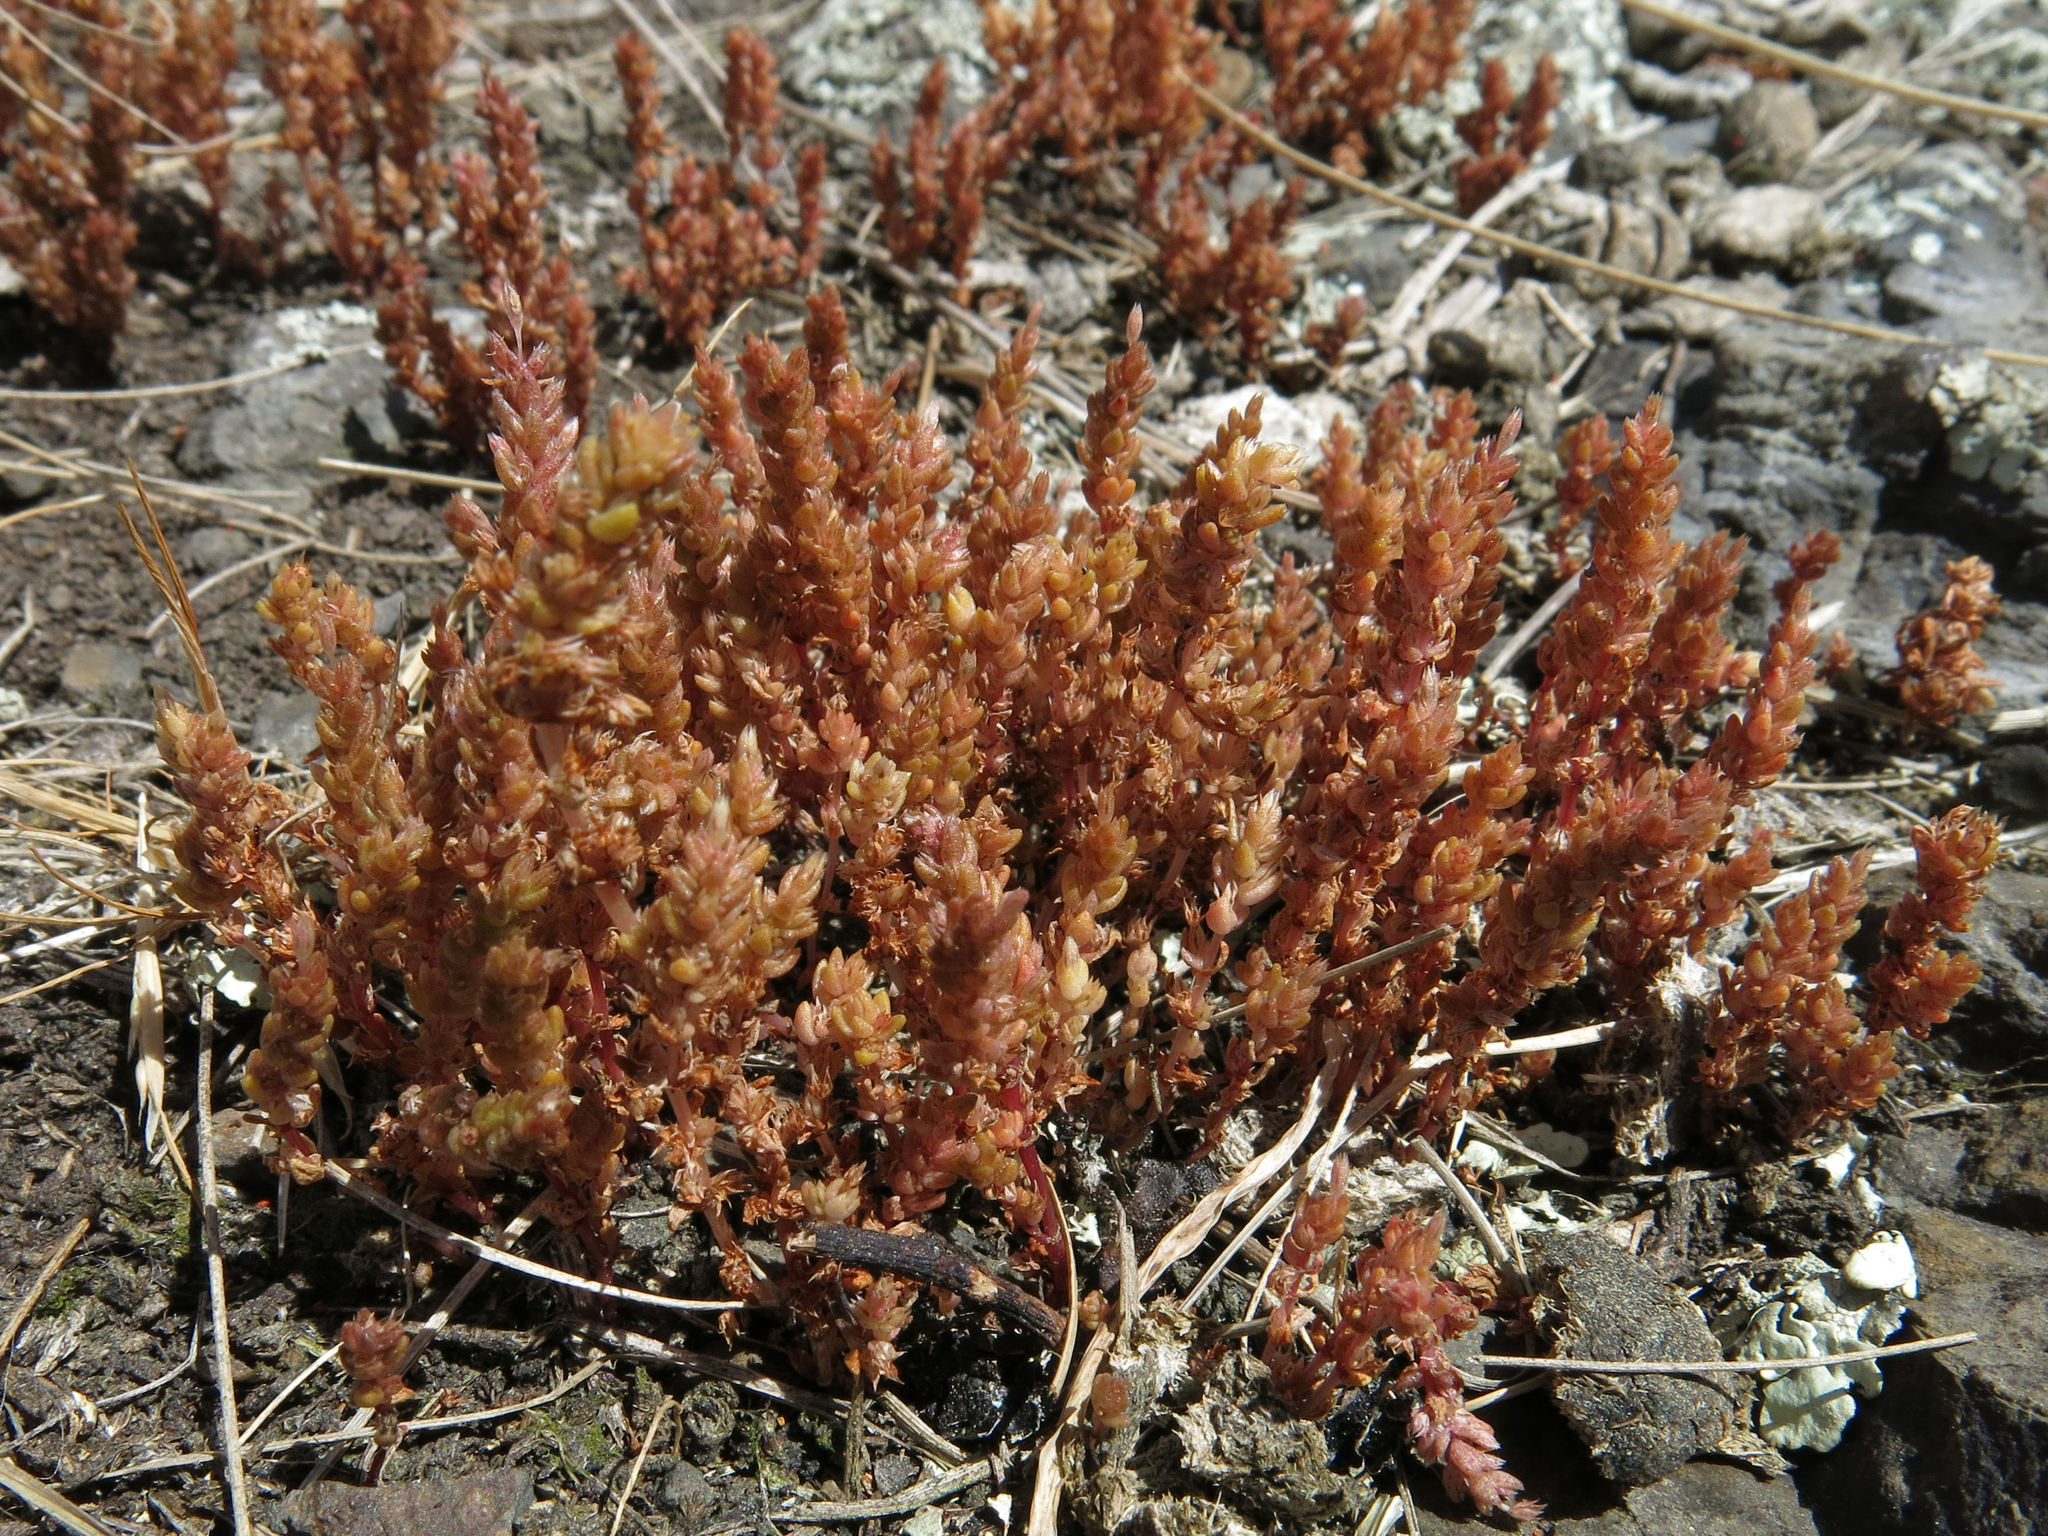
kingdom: Plantae
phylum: Tracheophyta
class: Magnoliopsida
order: Saxifragales
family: Crassulaceae
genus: Crassula
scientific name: Crassula sieberiana
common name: Siberian pygmyweed
